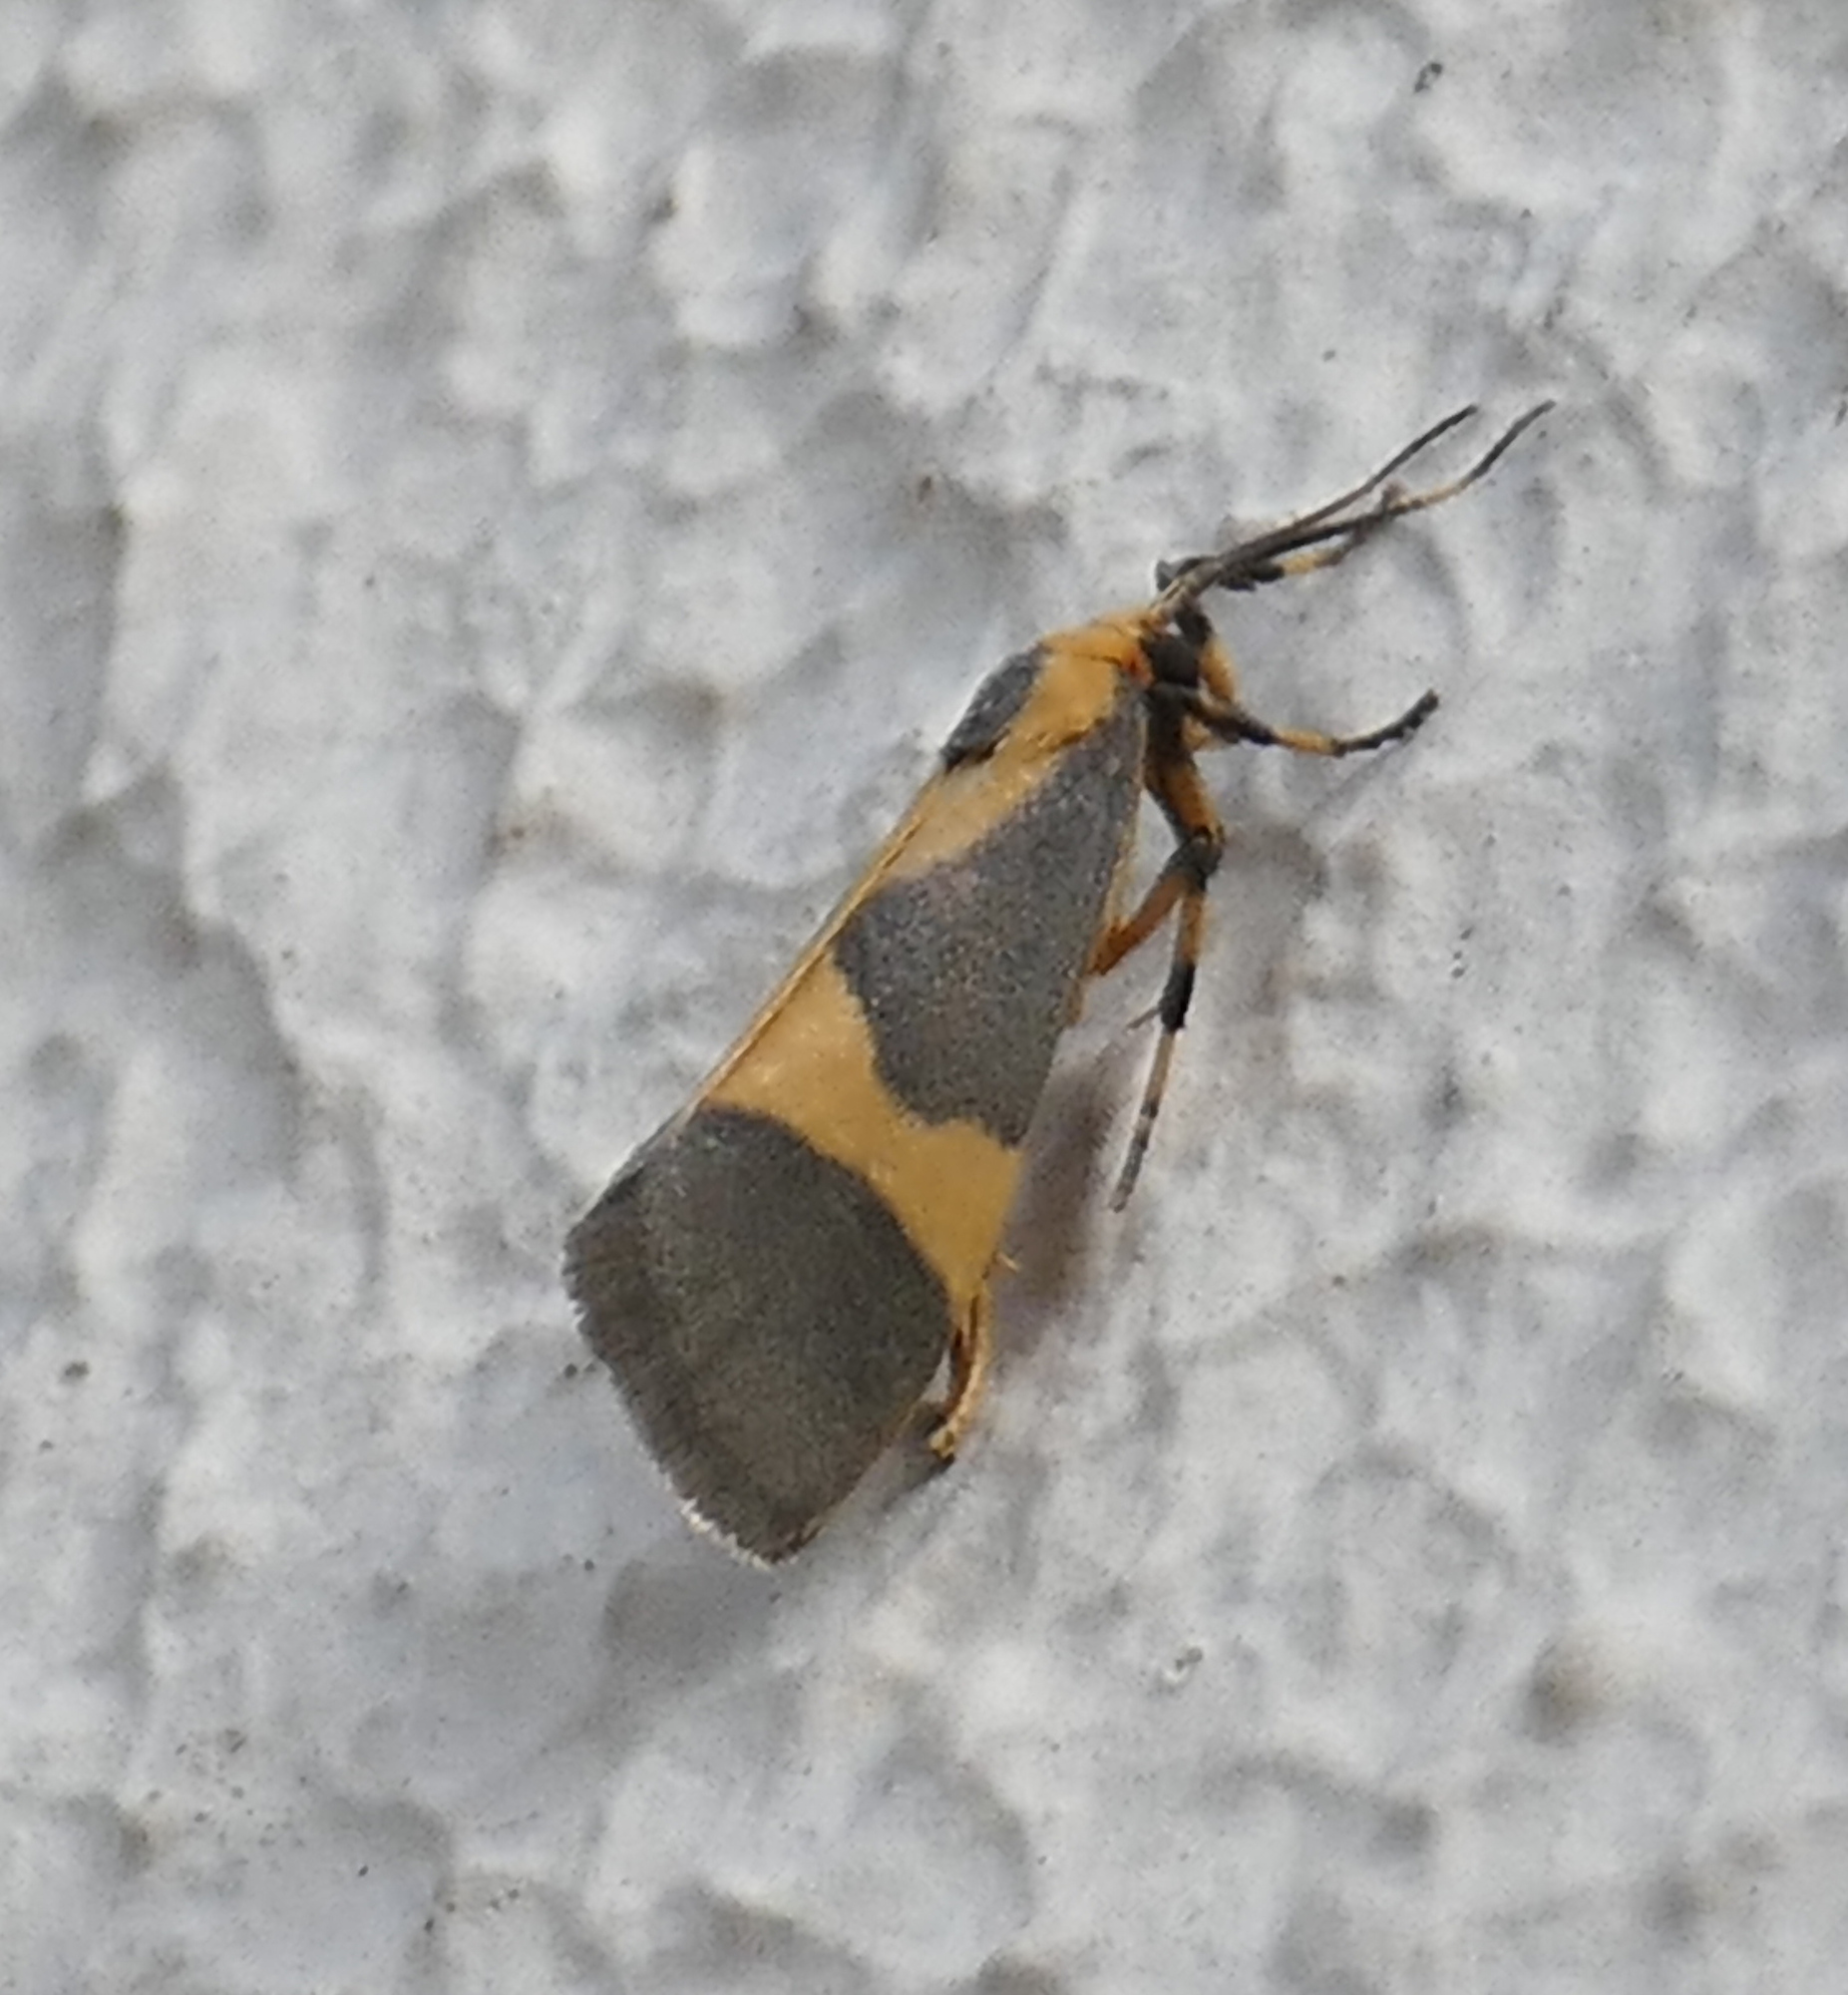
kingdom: Animalia
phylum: Arthropoda
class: Insecta
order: Lepidoptera
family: Erebidae
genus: Cisthene
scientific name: Cisthene unifascia
